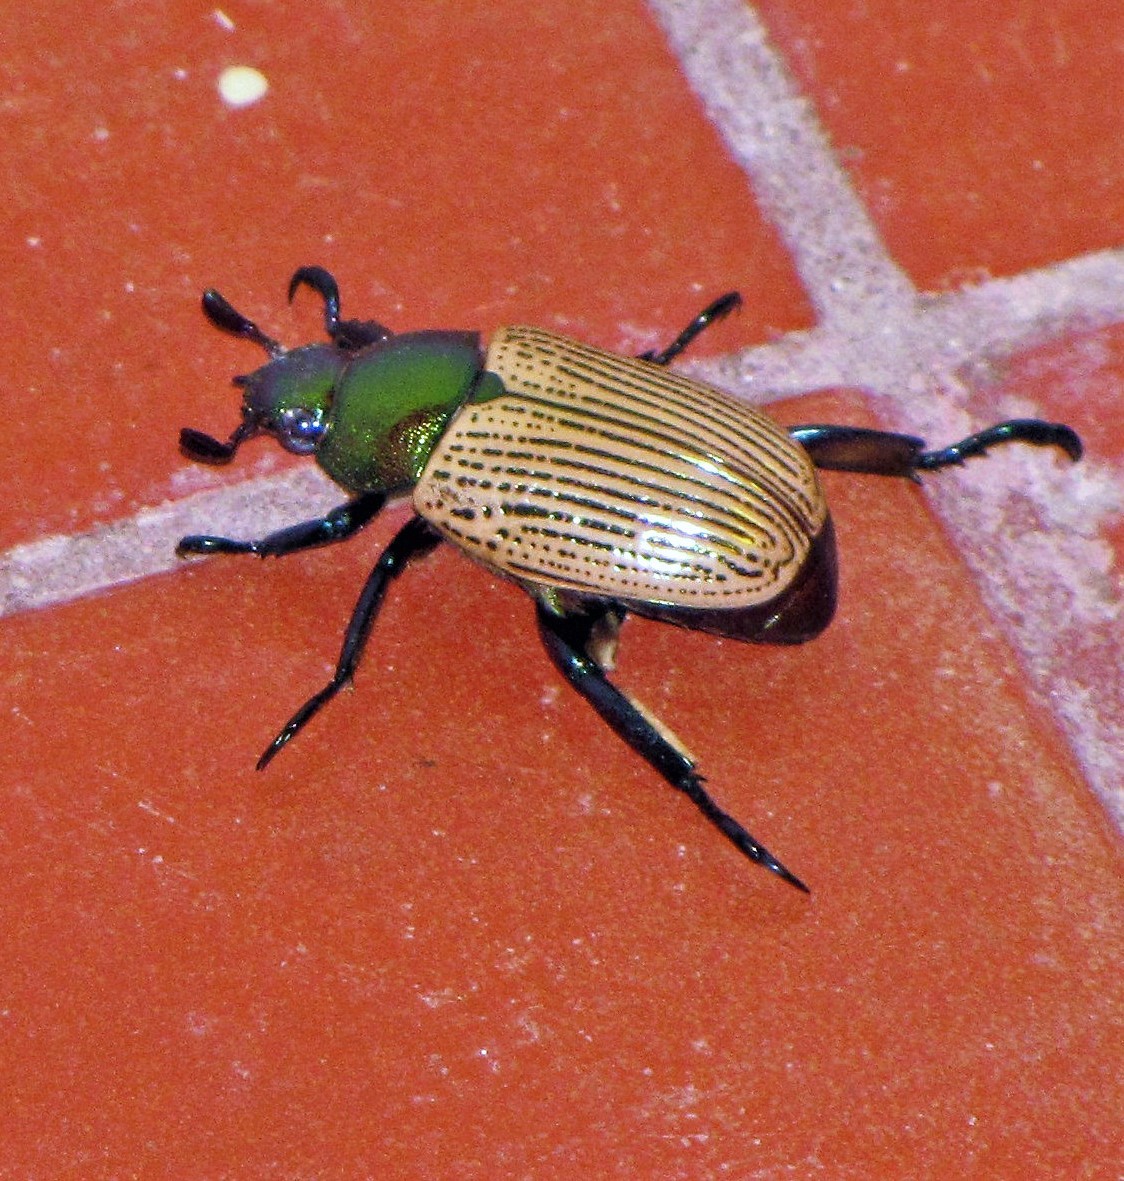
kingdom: Animalia
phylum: Arthropoda
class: Insecta
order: Coleoptera
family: Scarabaeidae
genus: Epichalcoplethis
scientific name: Epichalcoplethis sanctijacobi
